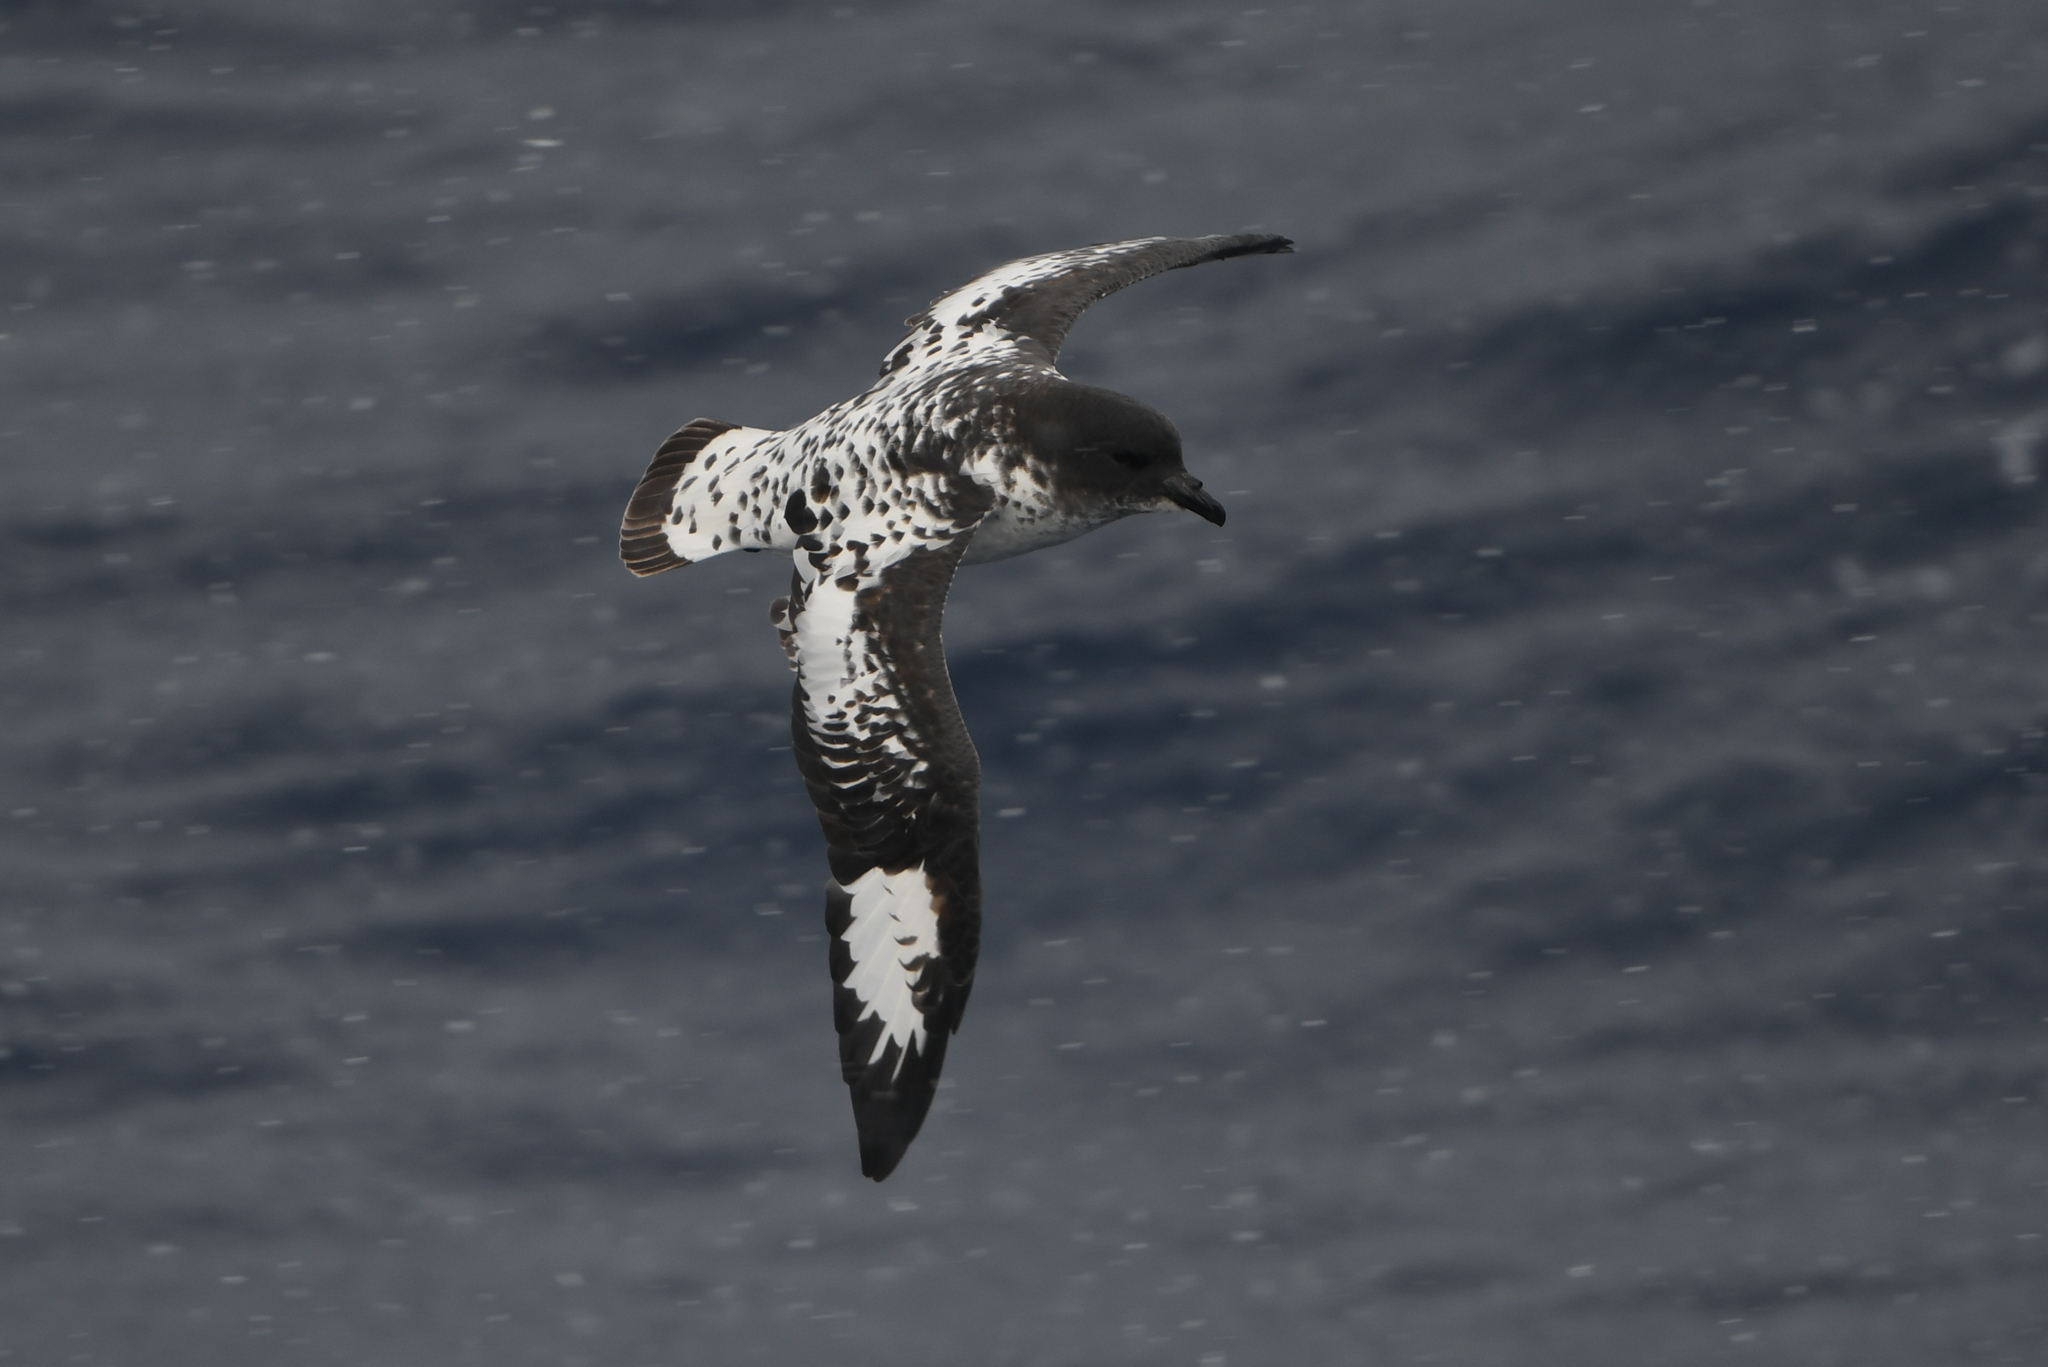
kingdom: Animalia
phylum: Chordata
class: Aves
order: Procellariiformes
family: Procellariidae
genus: Daption
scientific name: Daption capense
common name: Cape petrel
